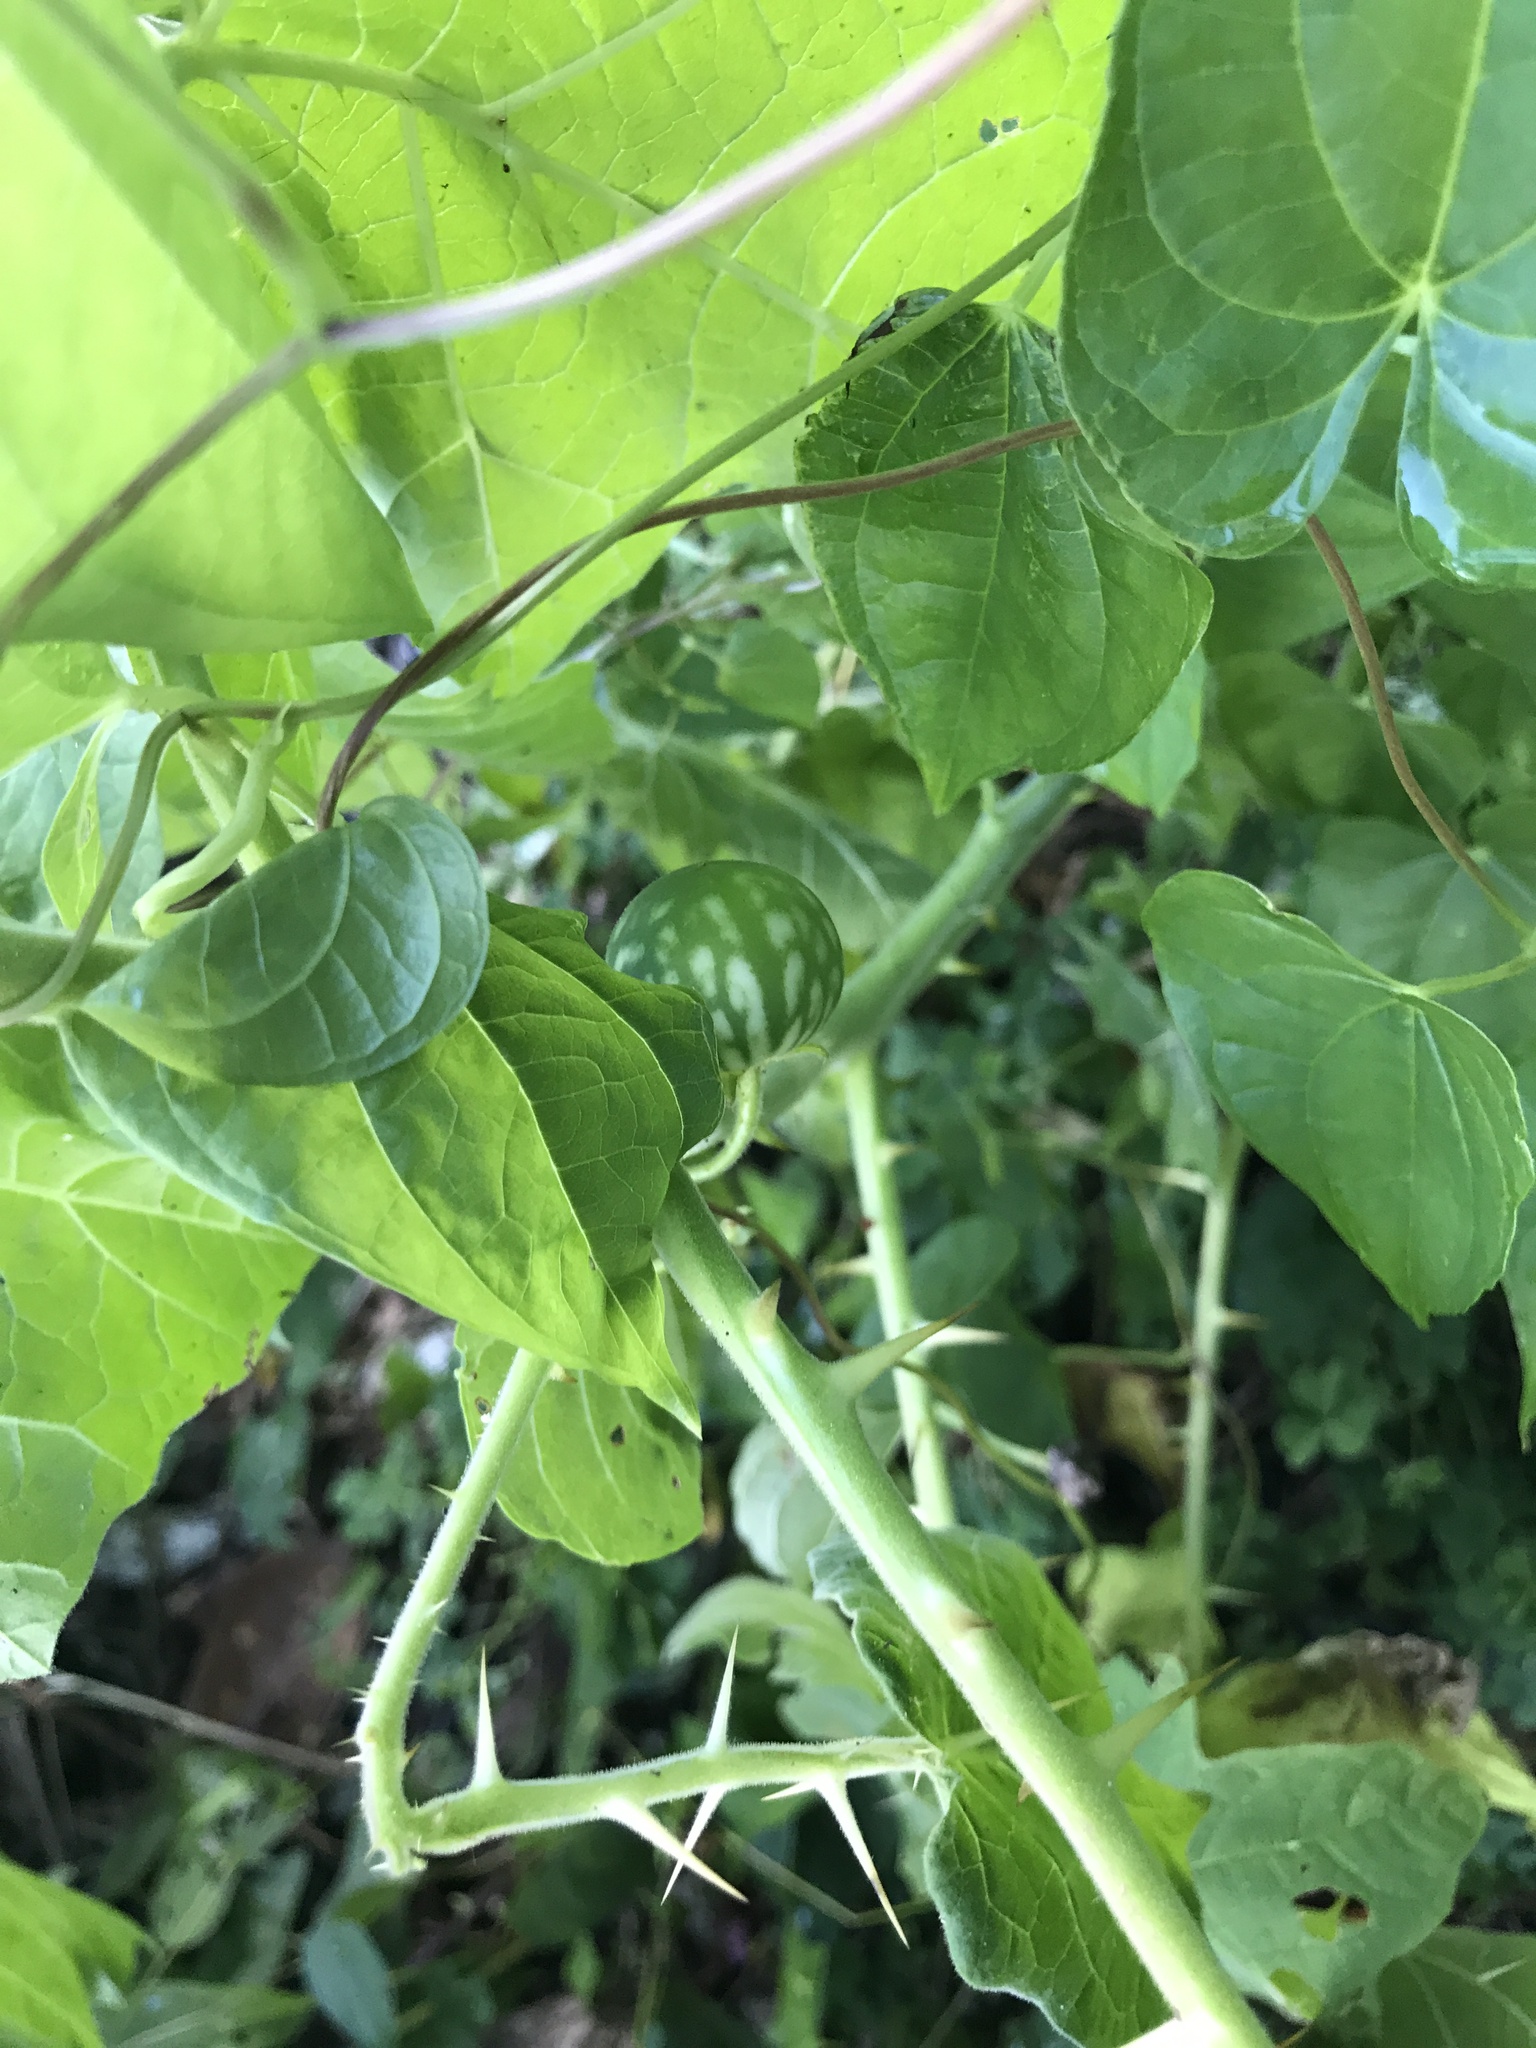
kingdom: Plantae
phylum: Tracheophyta
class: Magnoliopsida
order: Solanales
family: Solanaceae
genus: Solanum
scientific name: Solanum viarum
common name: Tropical soda apple
